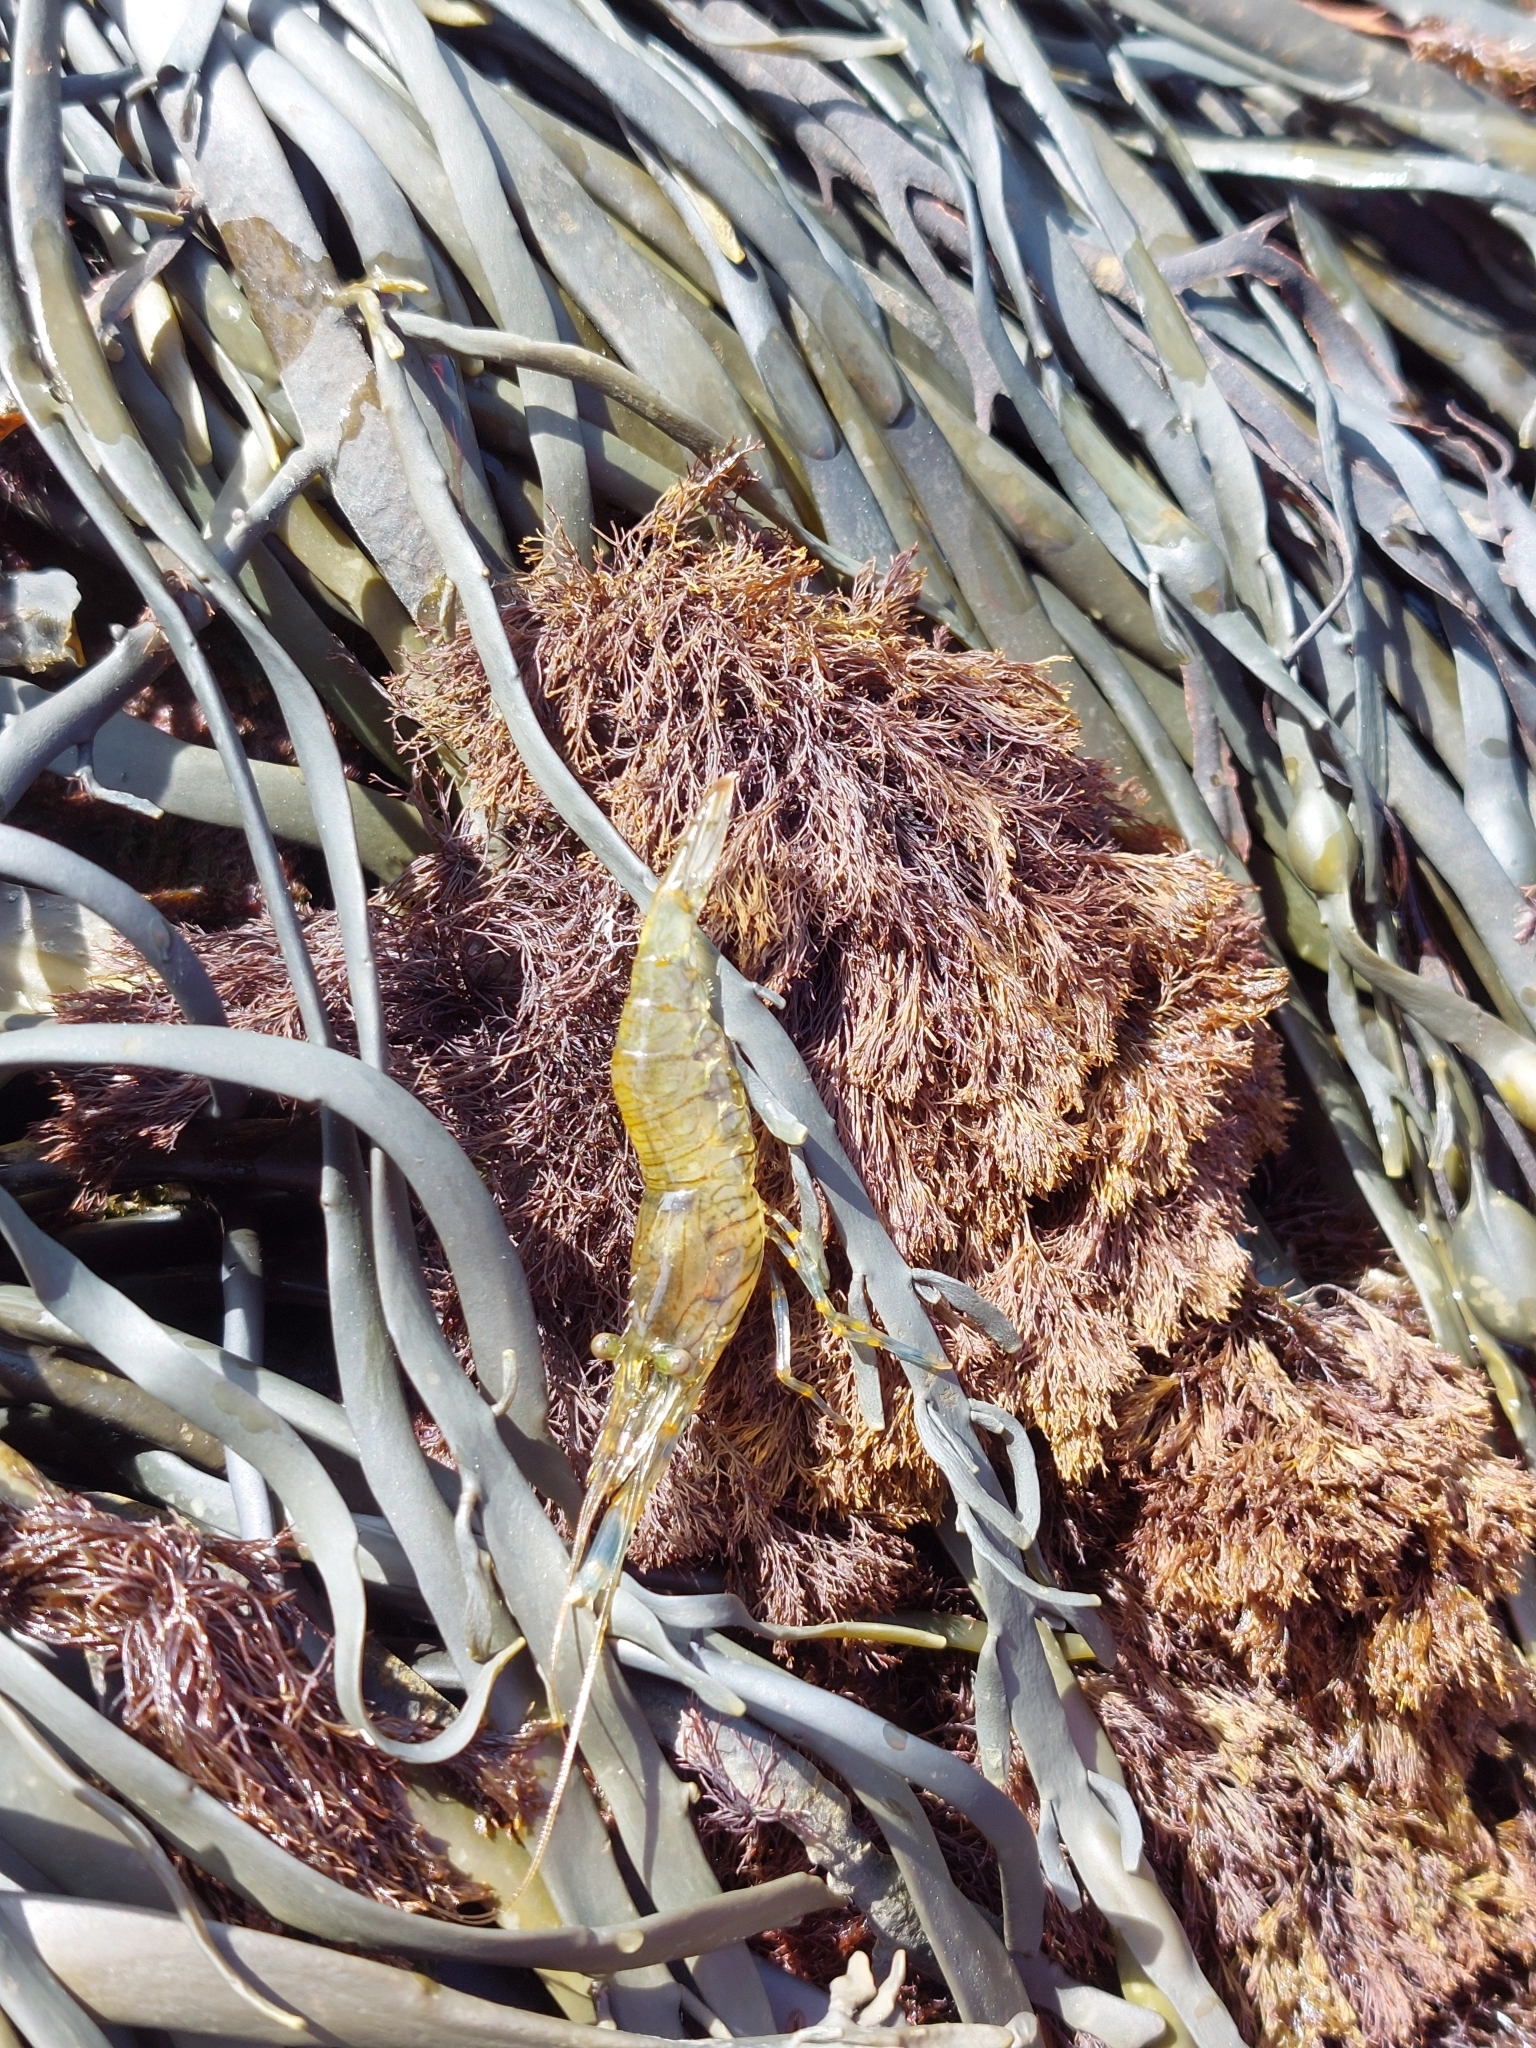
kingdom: Animalia
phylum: Arthropoda
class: Malacostraca
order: Decapoda
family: Palaemonidae
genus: Palaemon
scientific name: Palaemon elegans
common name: Grass prawm
